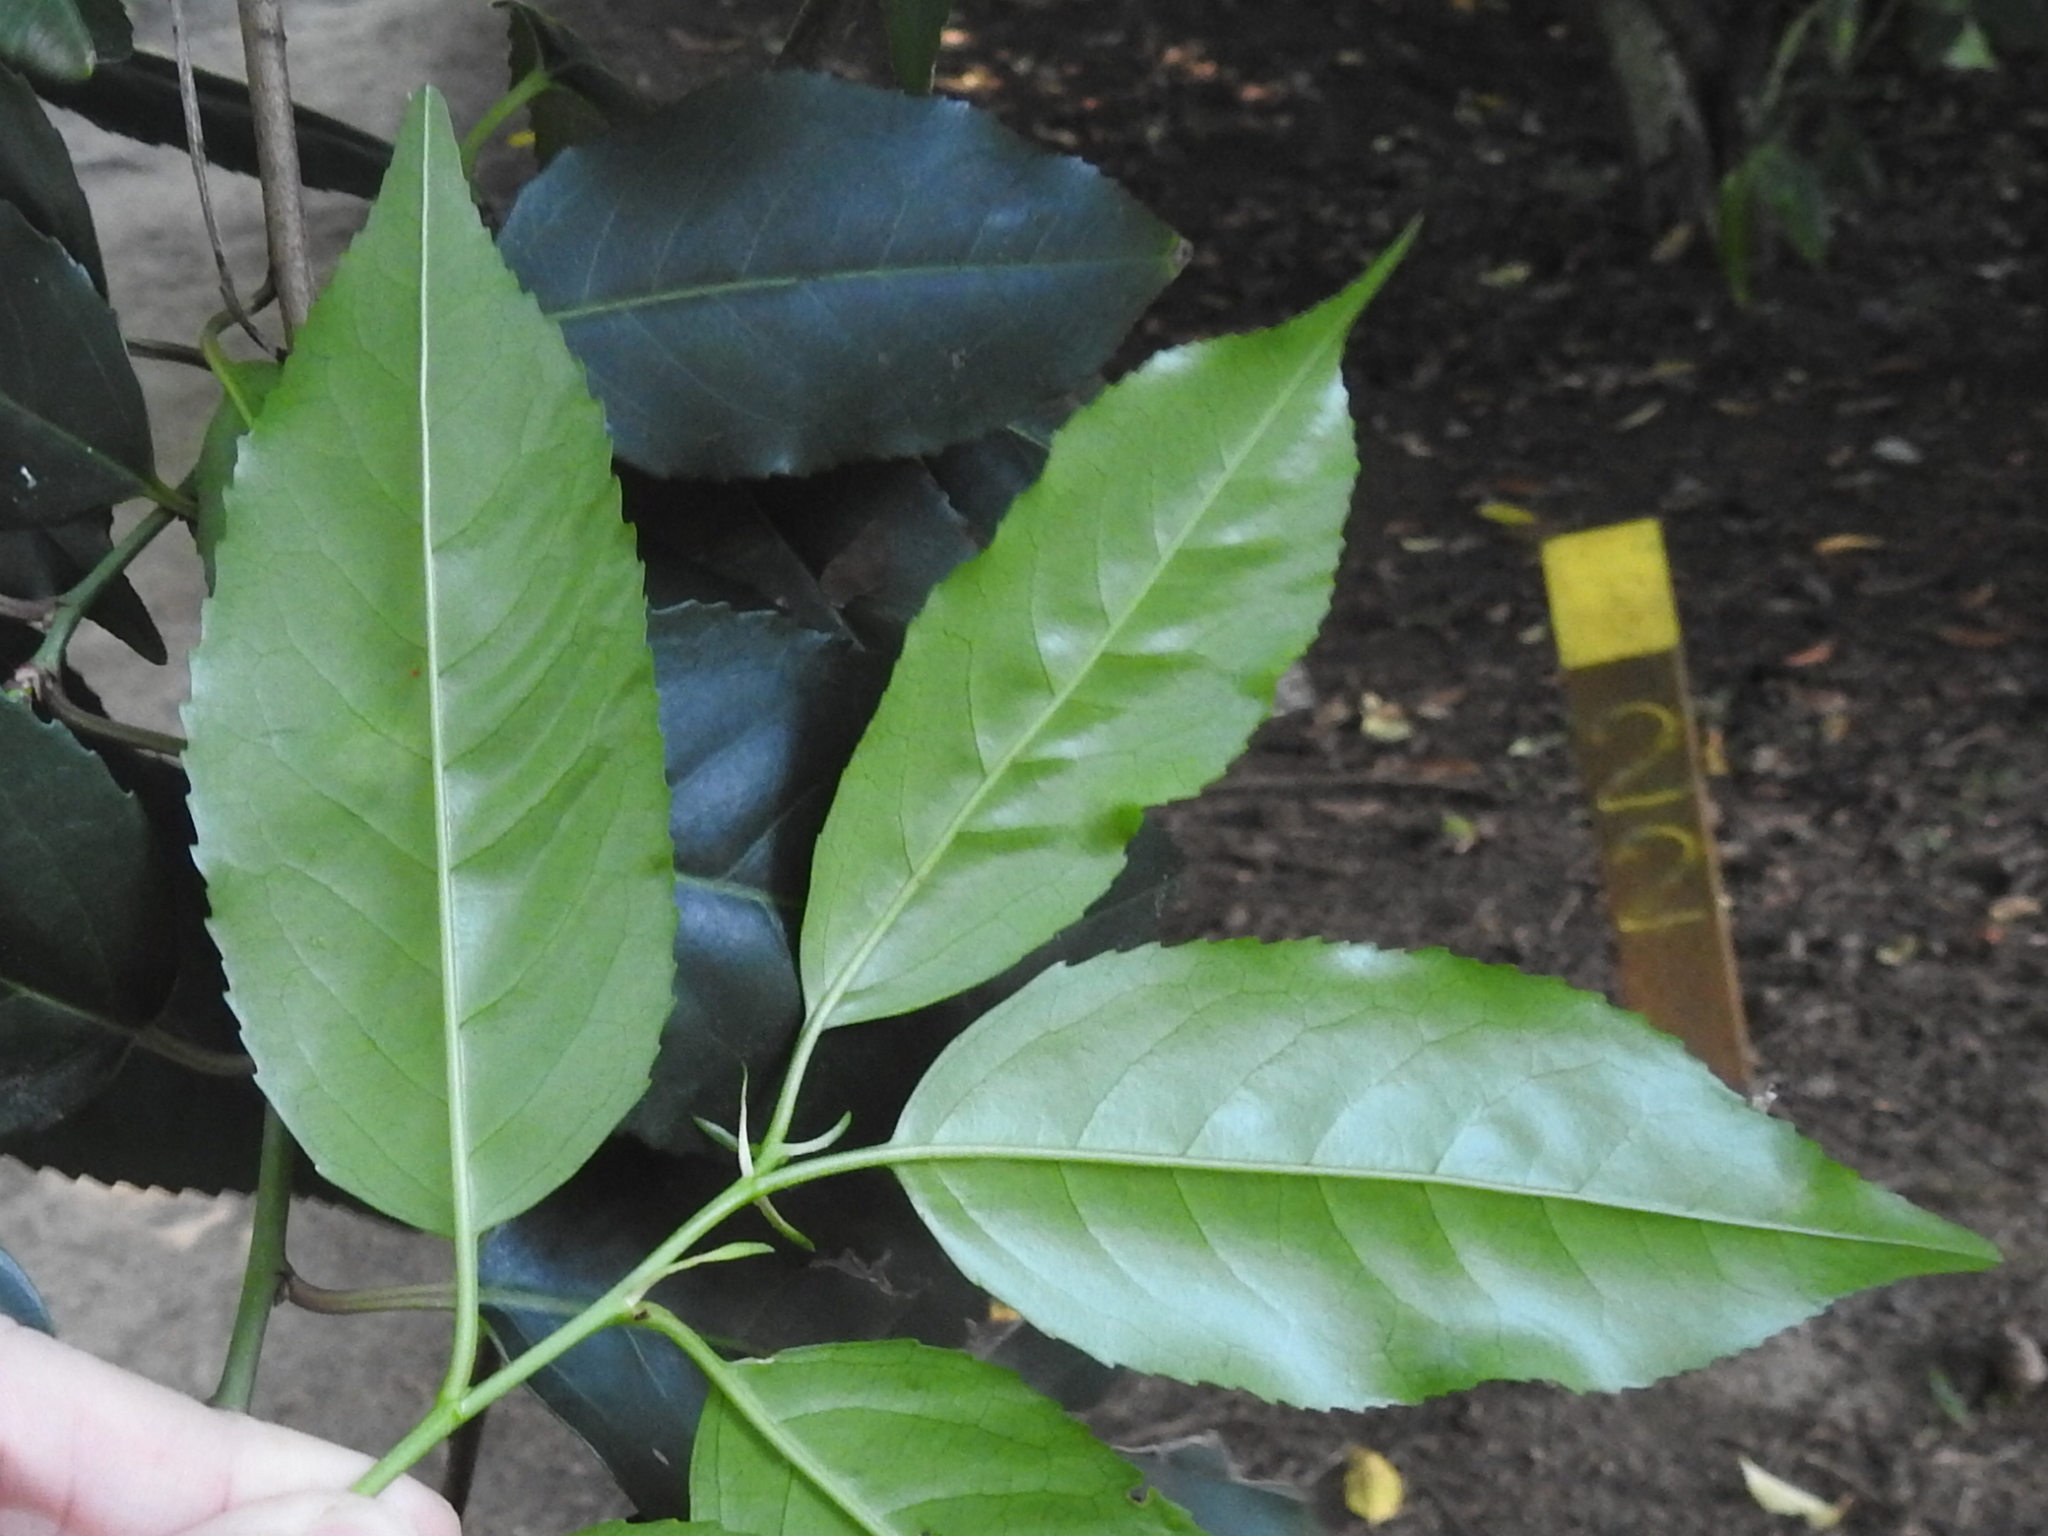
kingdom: Plantae
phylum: Tracheophyta
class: Magnoliopsida
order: Rosales
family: Rosaceae
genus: Prunus
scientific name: Prunus lusitanica
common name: Portugal laurel
